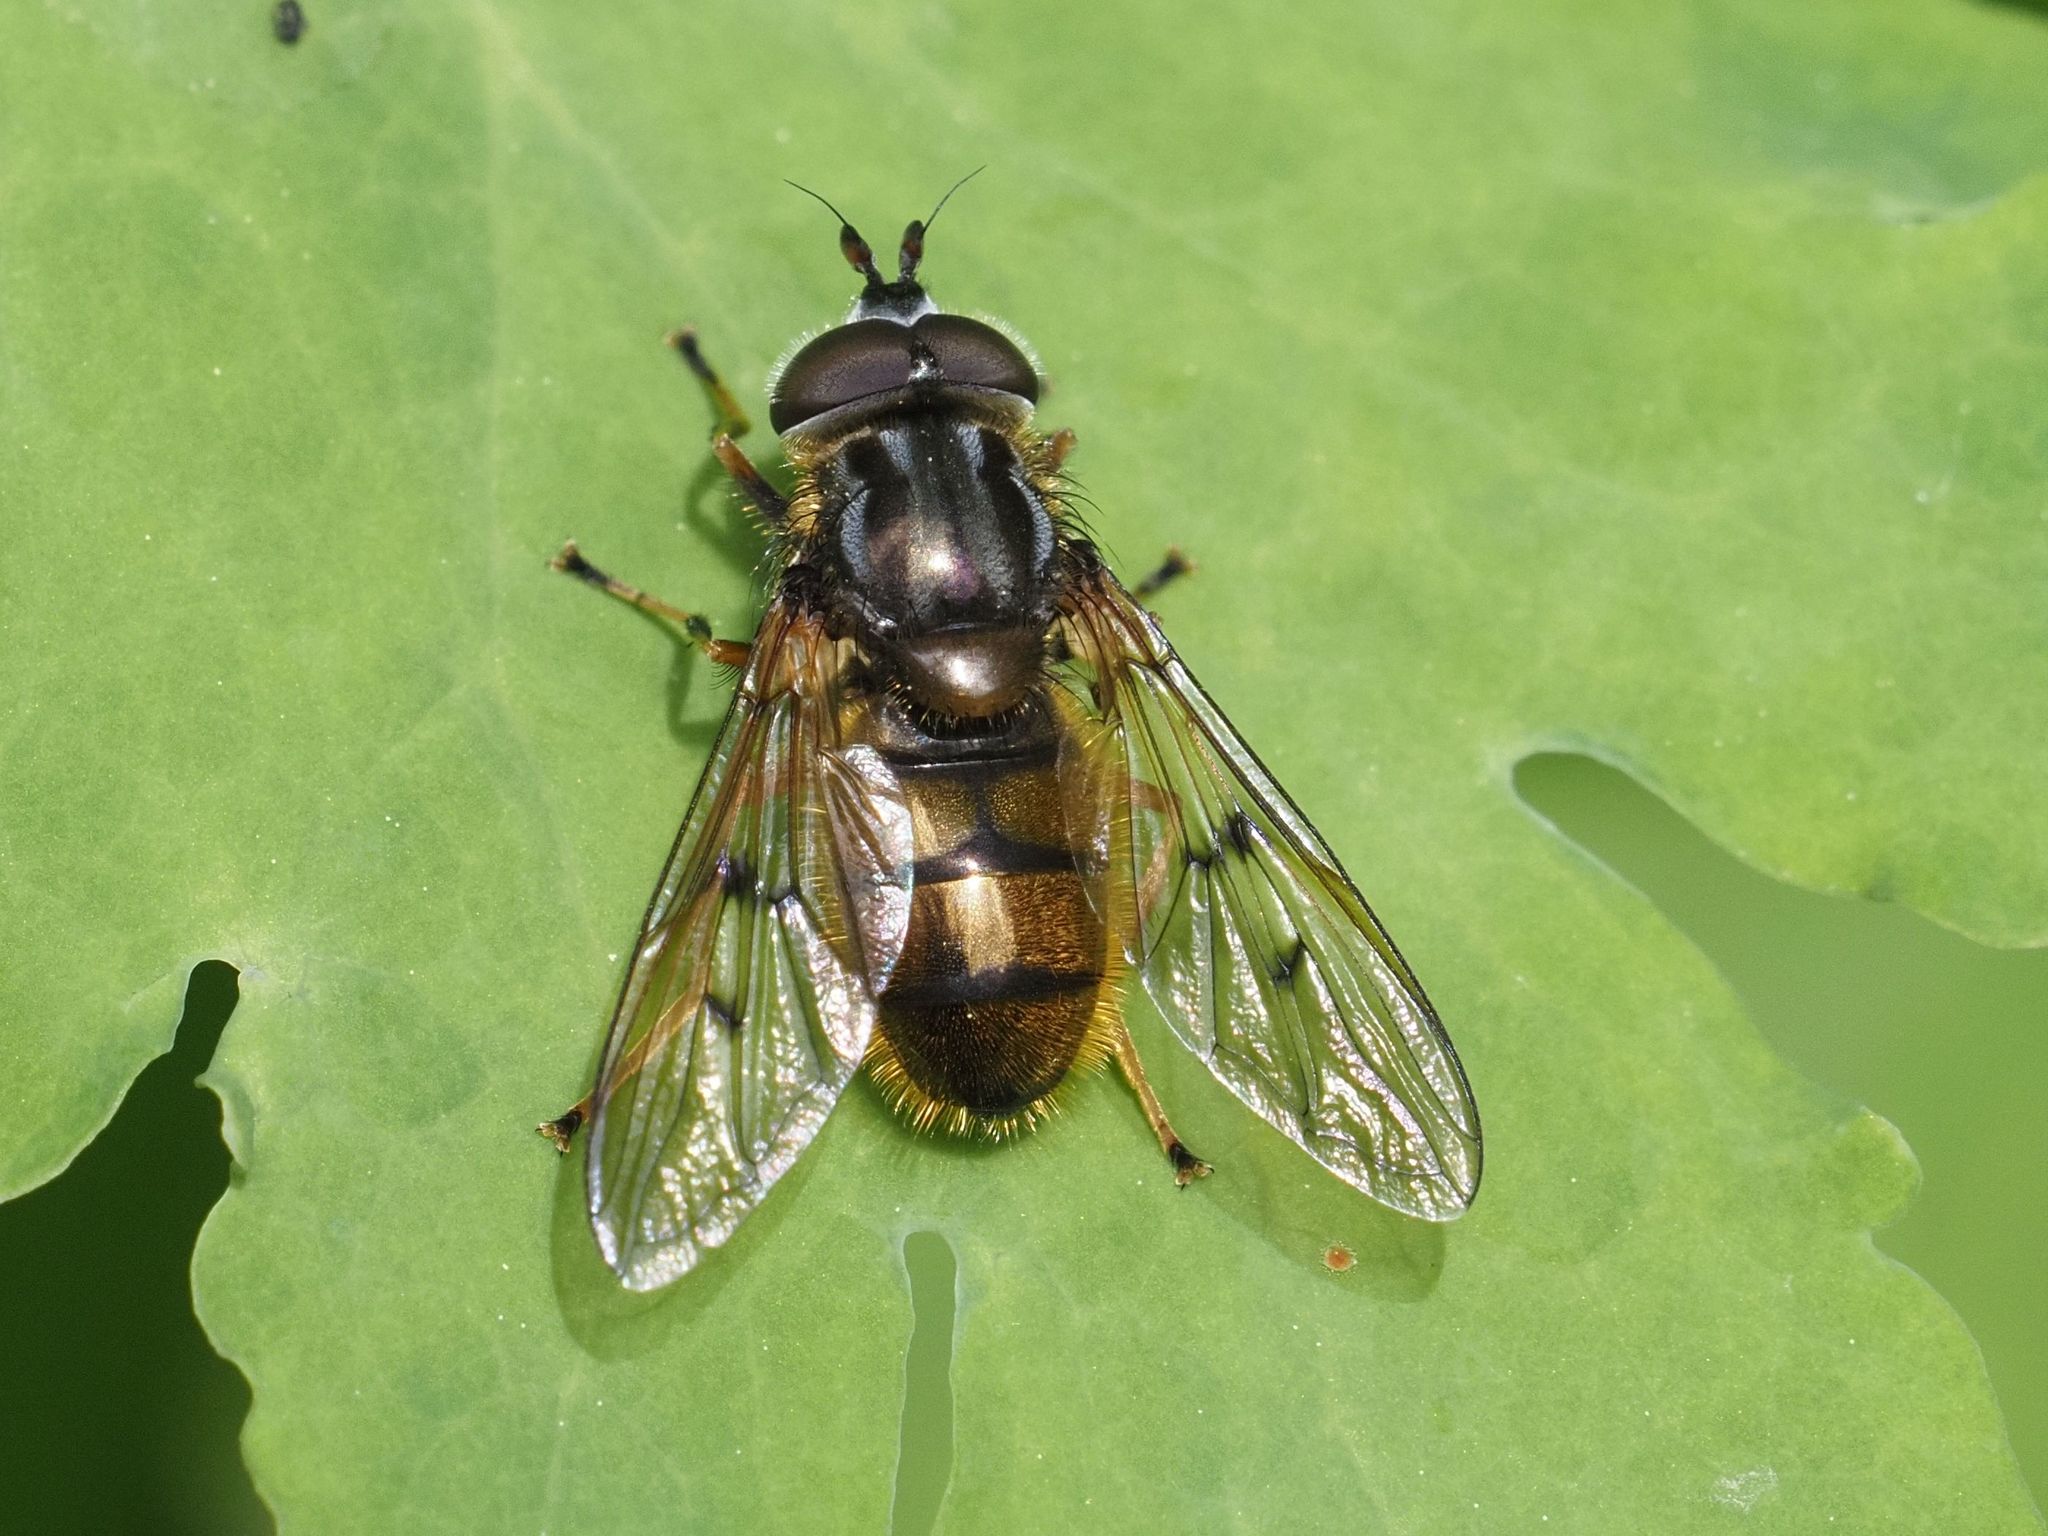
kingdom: Animalia
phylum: Arthropoda
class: Insecta
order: Diptera
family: Syrphidae
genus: Ferdinandea
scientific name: Ferdinandea cuprea
